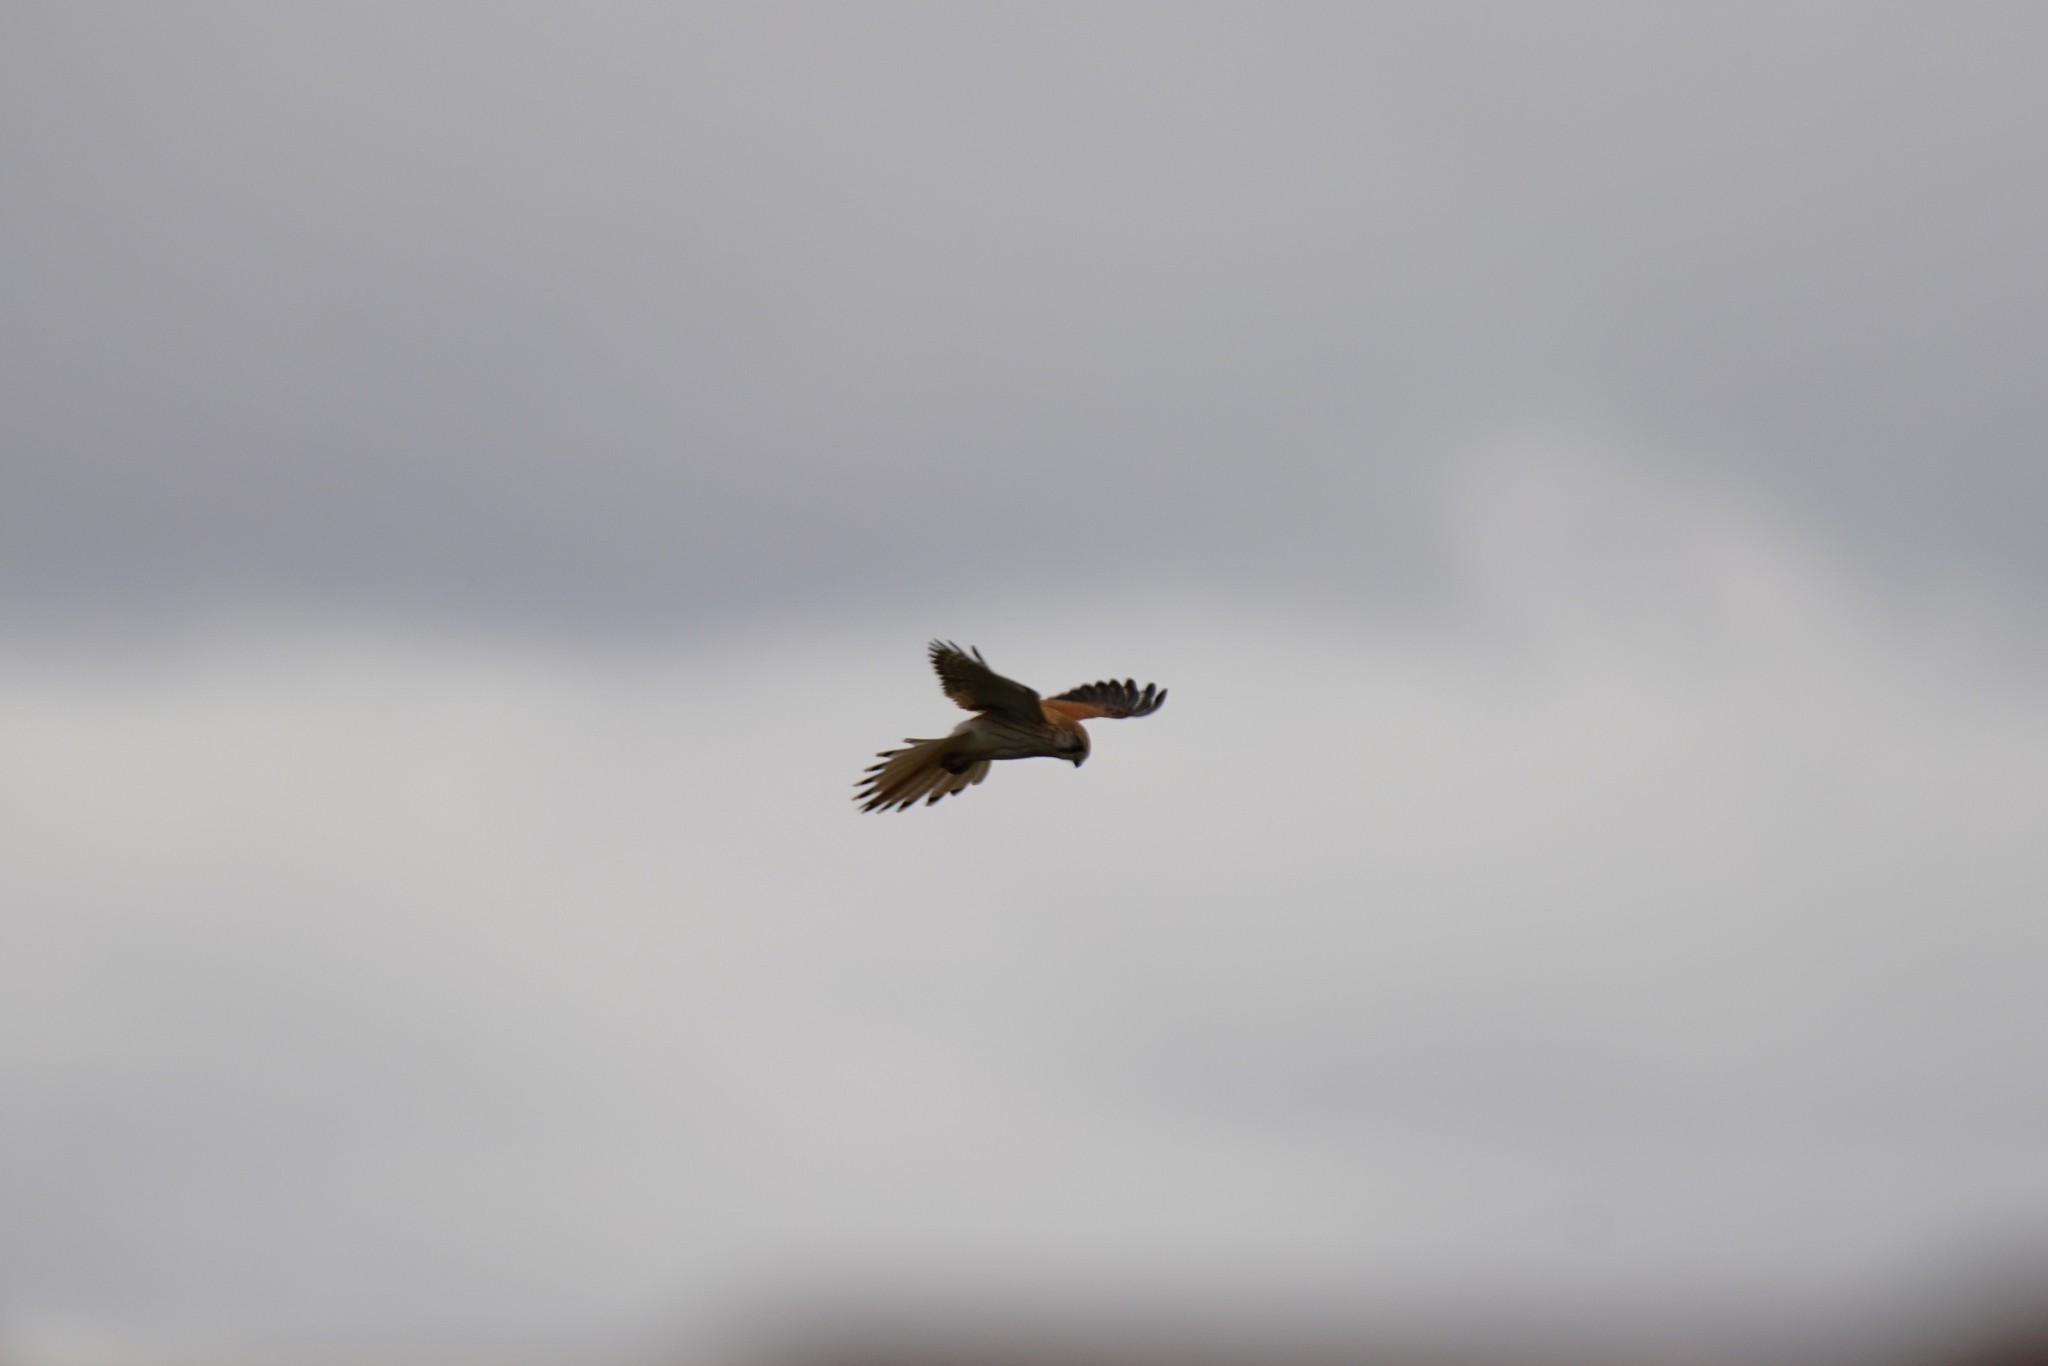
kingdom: Animalia
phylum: Chordata
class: Aves
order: Falconiformes
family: Falconidae
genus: Falco
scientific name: Falco cenchroides
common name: Nankeen kestrel
